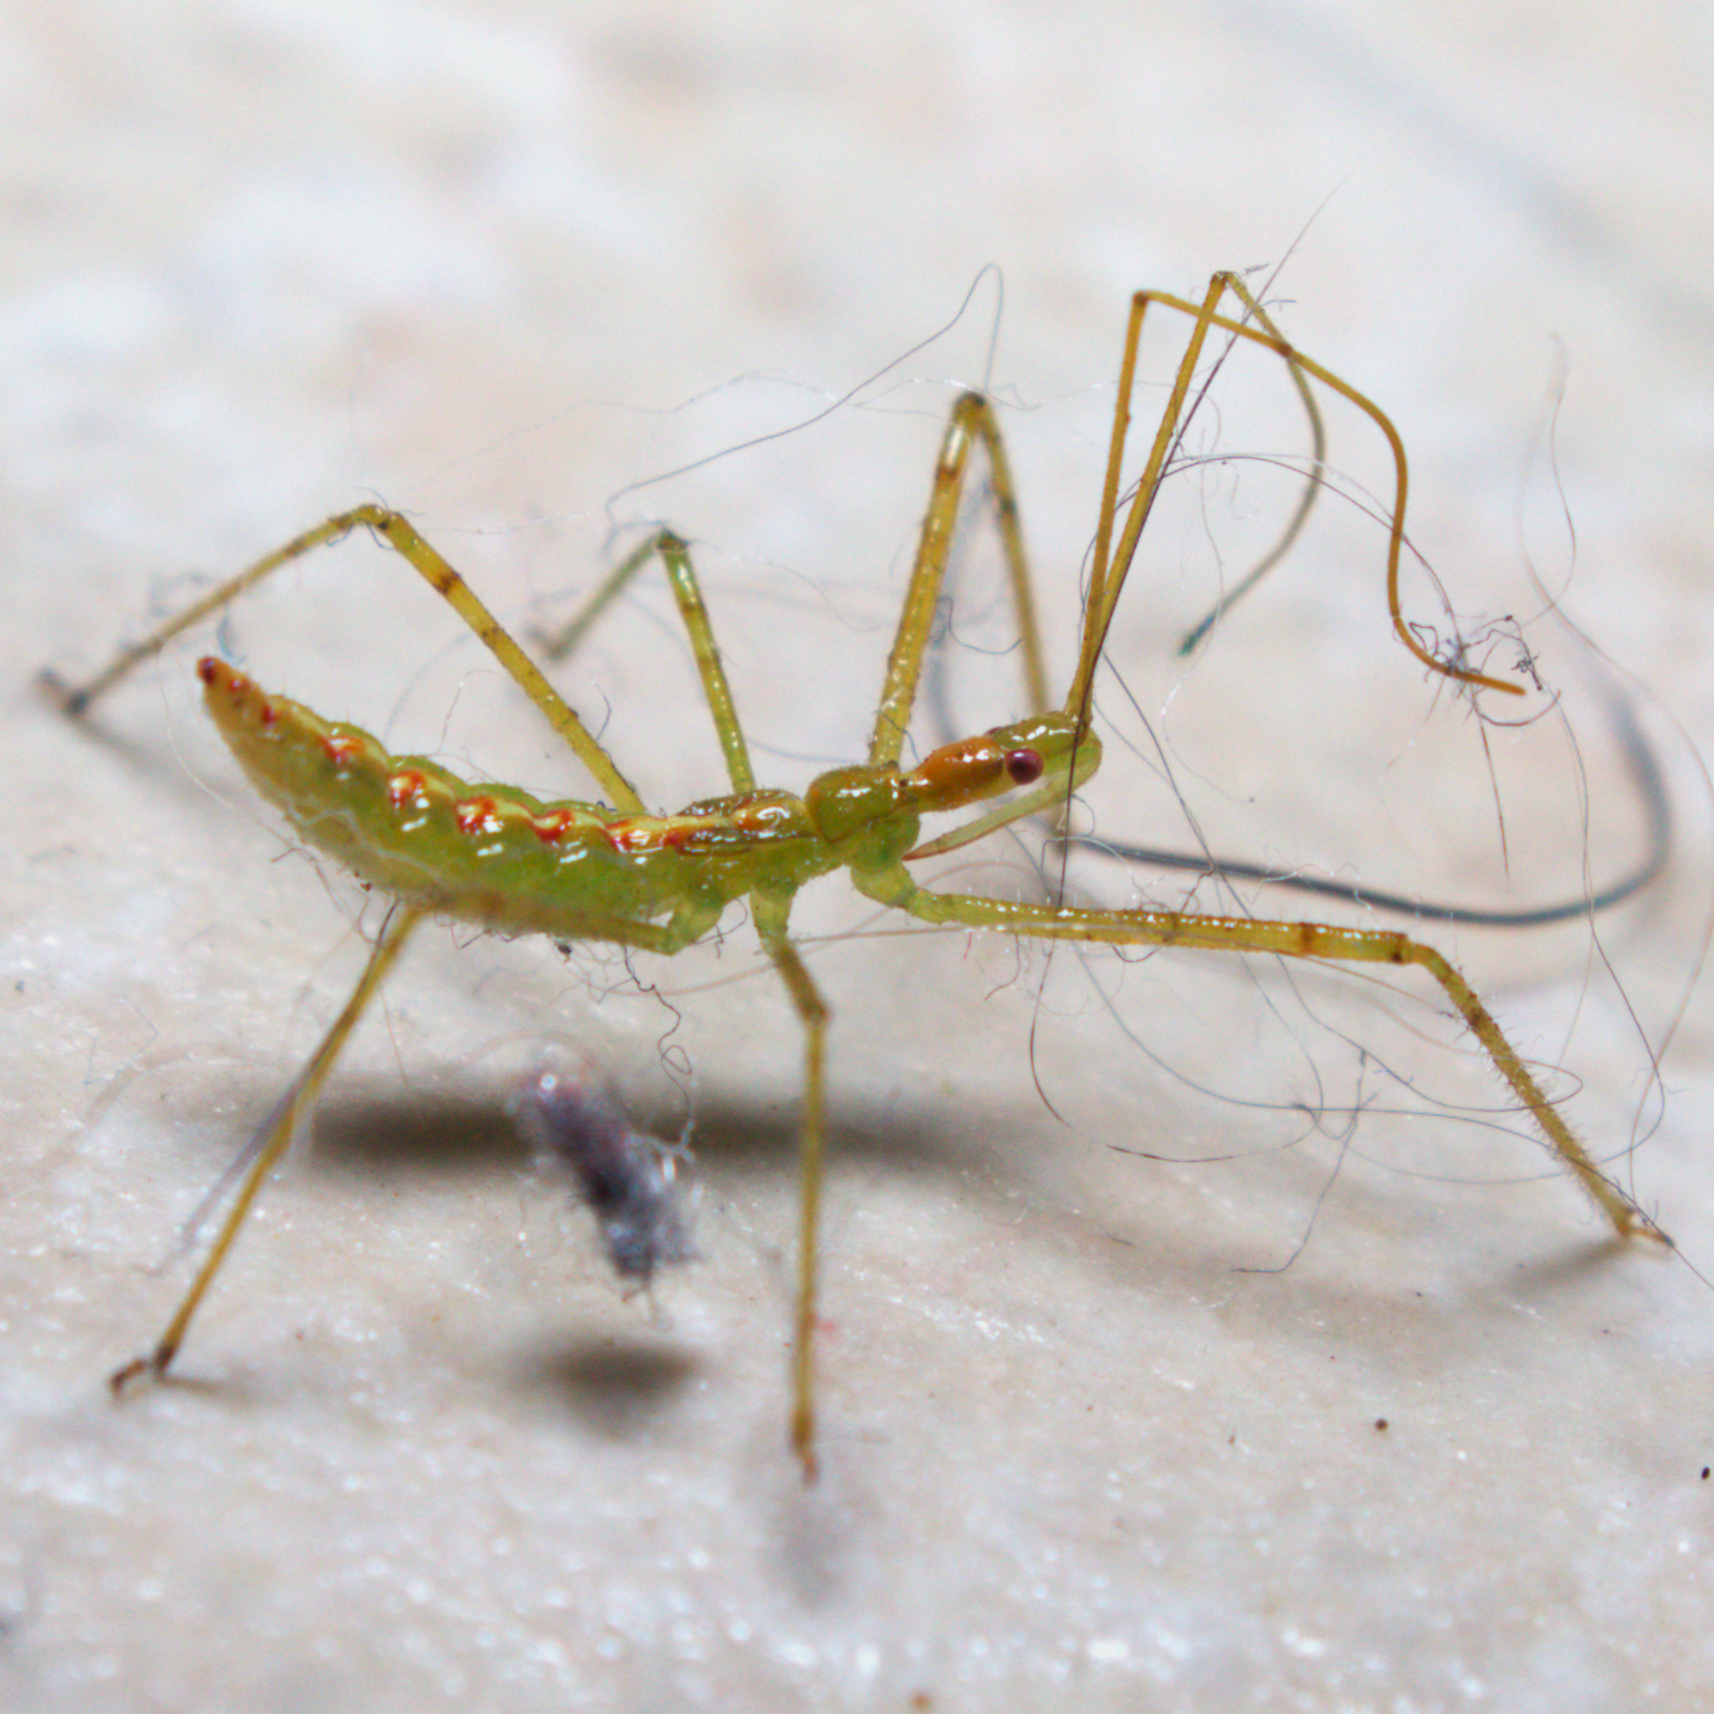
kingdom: Animalia
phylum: Arthropoda
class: Insecta
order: Hemiptera
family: Reduviidae
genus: Zelus
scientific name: Zelus luridus
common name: Pale green assassin bug
